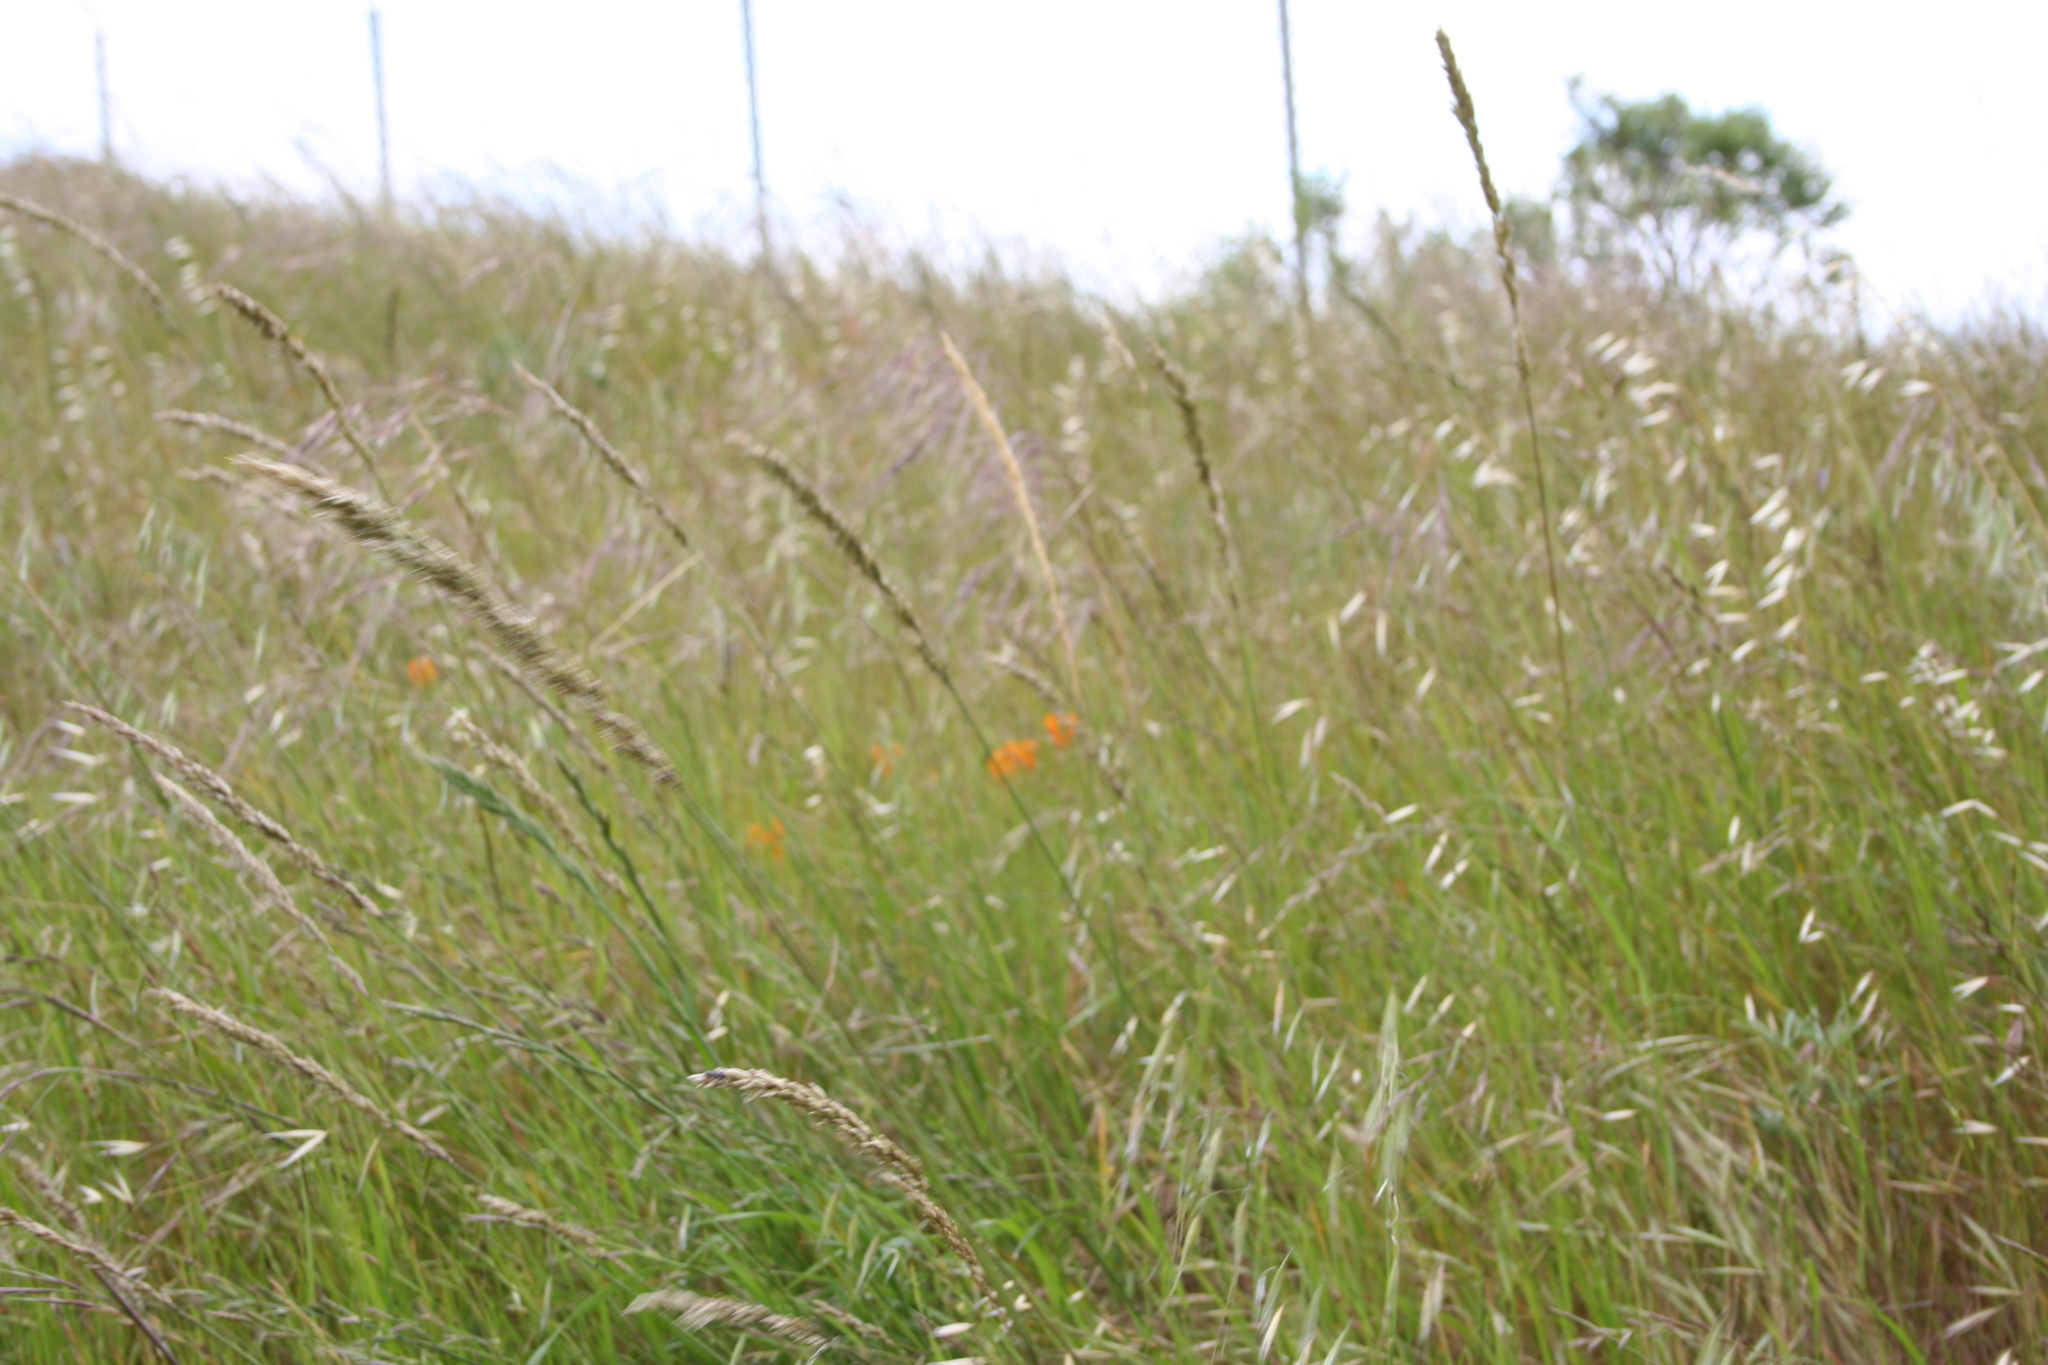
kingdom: Plantae
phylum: Tracheophyta
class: Liliopsida
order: Poales
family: Poaceae
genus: Melica
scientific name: Melica californica
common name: California melic
